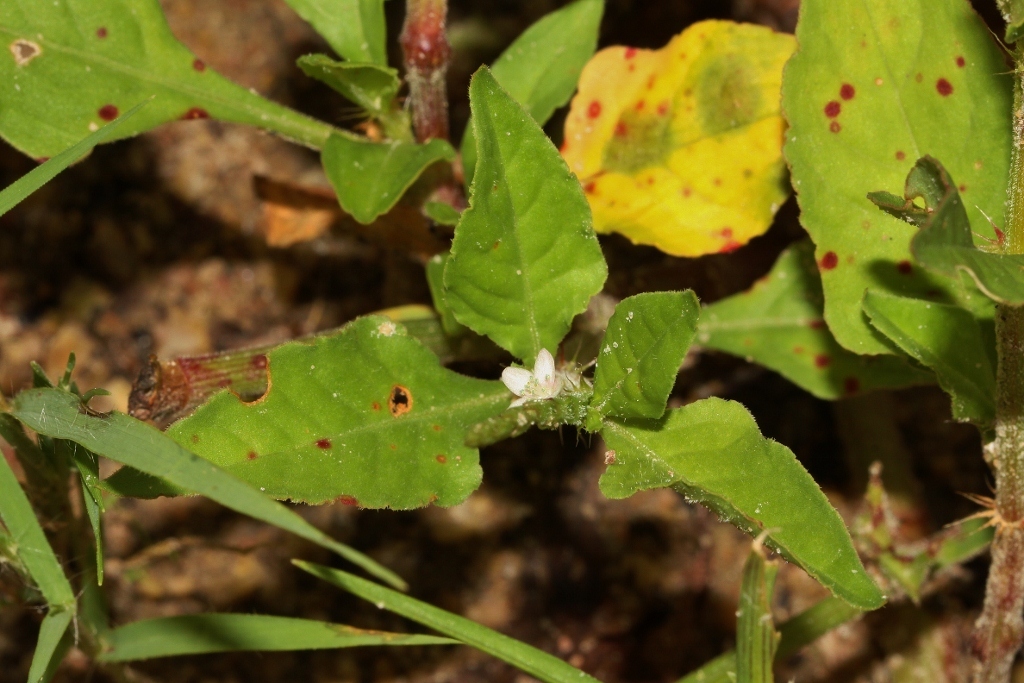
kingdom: Plantae
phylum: Tracheophyta
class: Magnoliopsida
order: Caryophyllales
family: Polygonaceae
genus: Oxygonum
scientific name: Oxygonum sinuatum
